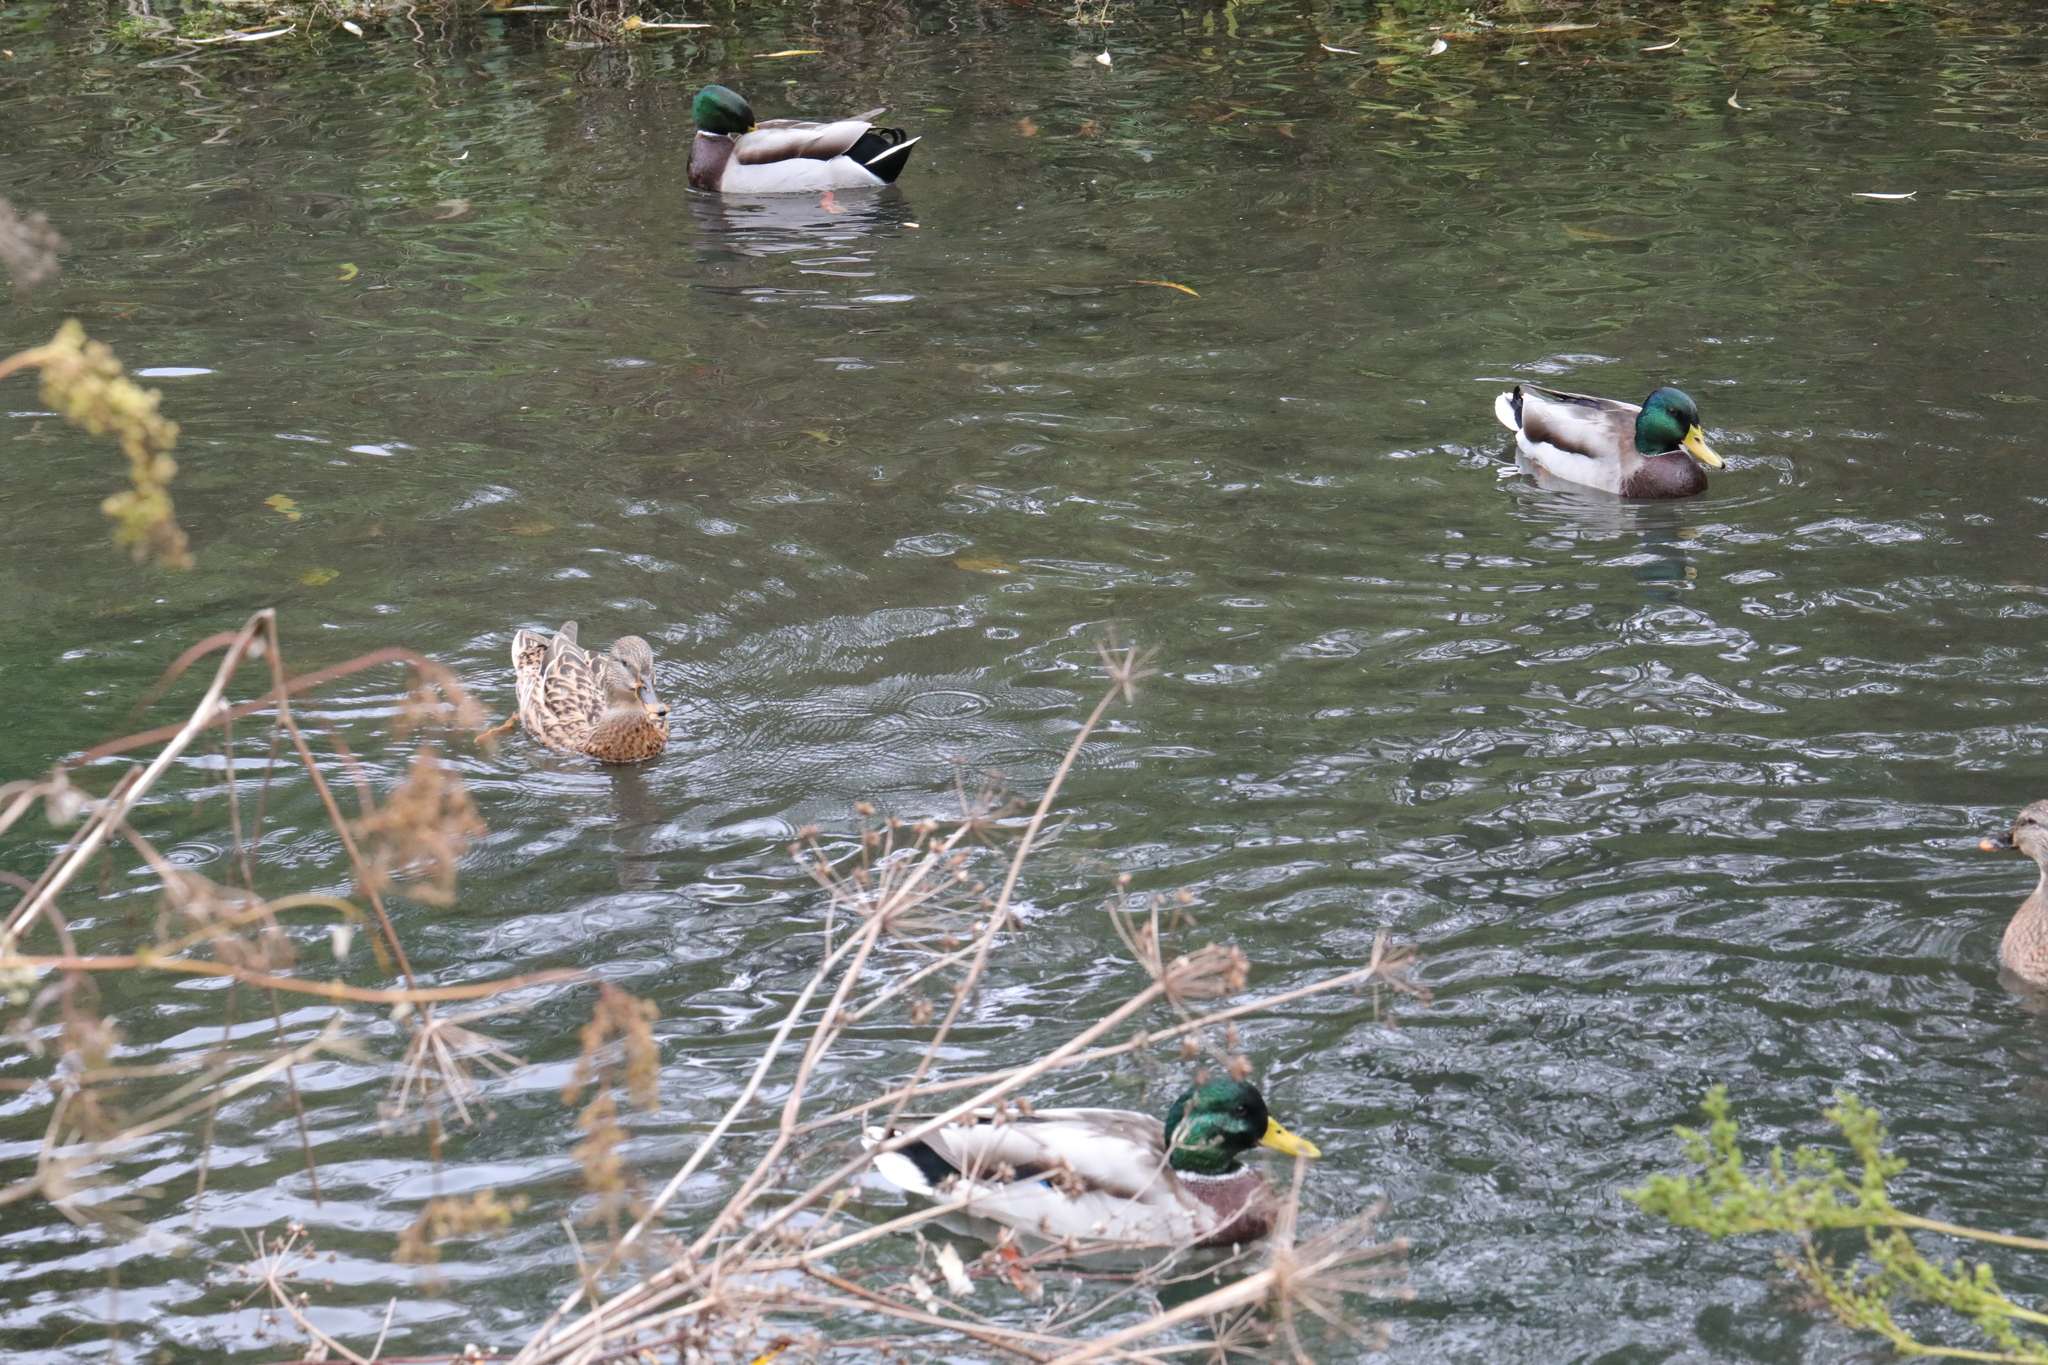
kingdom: Animalia
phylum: Chordata
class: Aves
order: Anseriformes
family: Anatidae
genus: Anas
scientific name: Anas platyrhynchos
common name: Mallard
